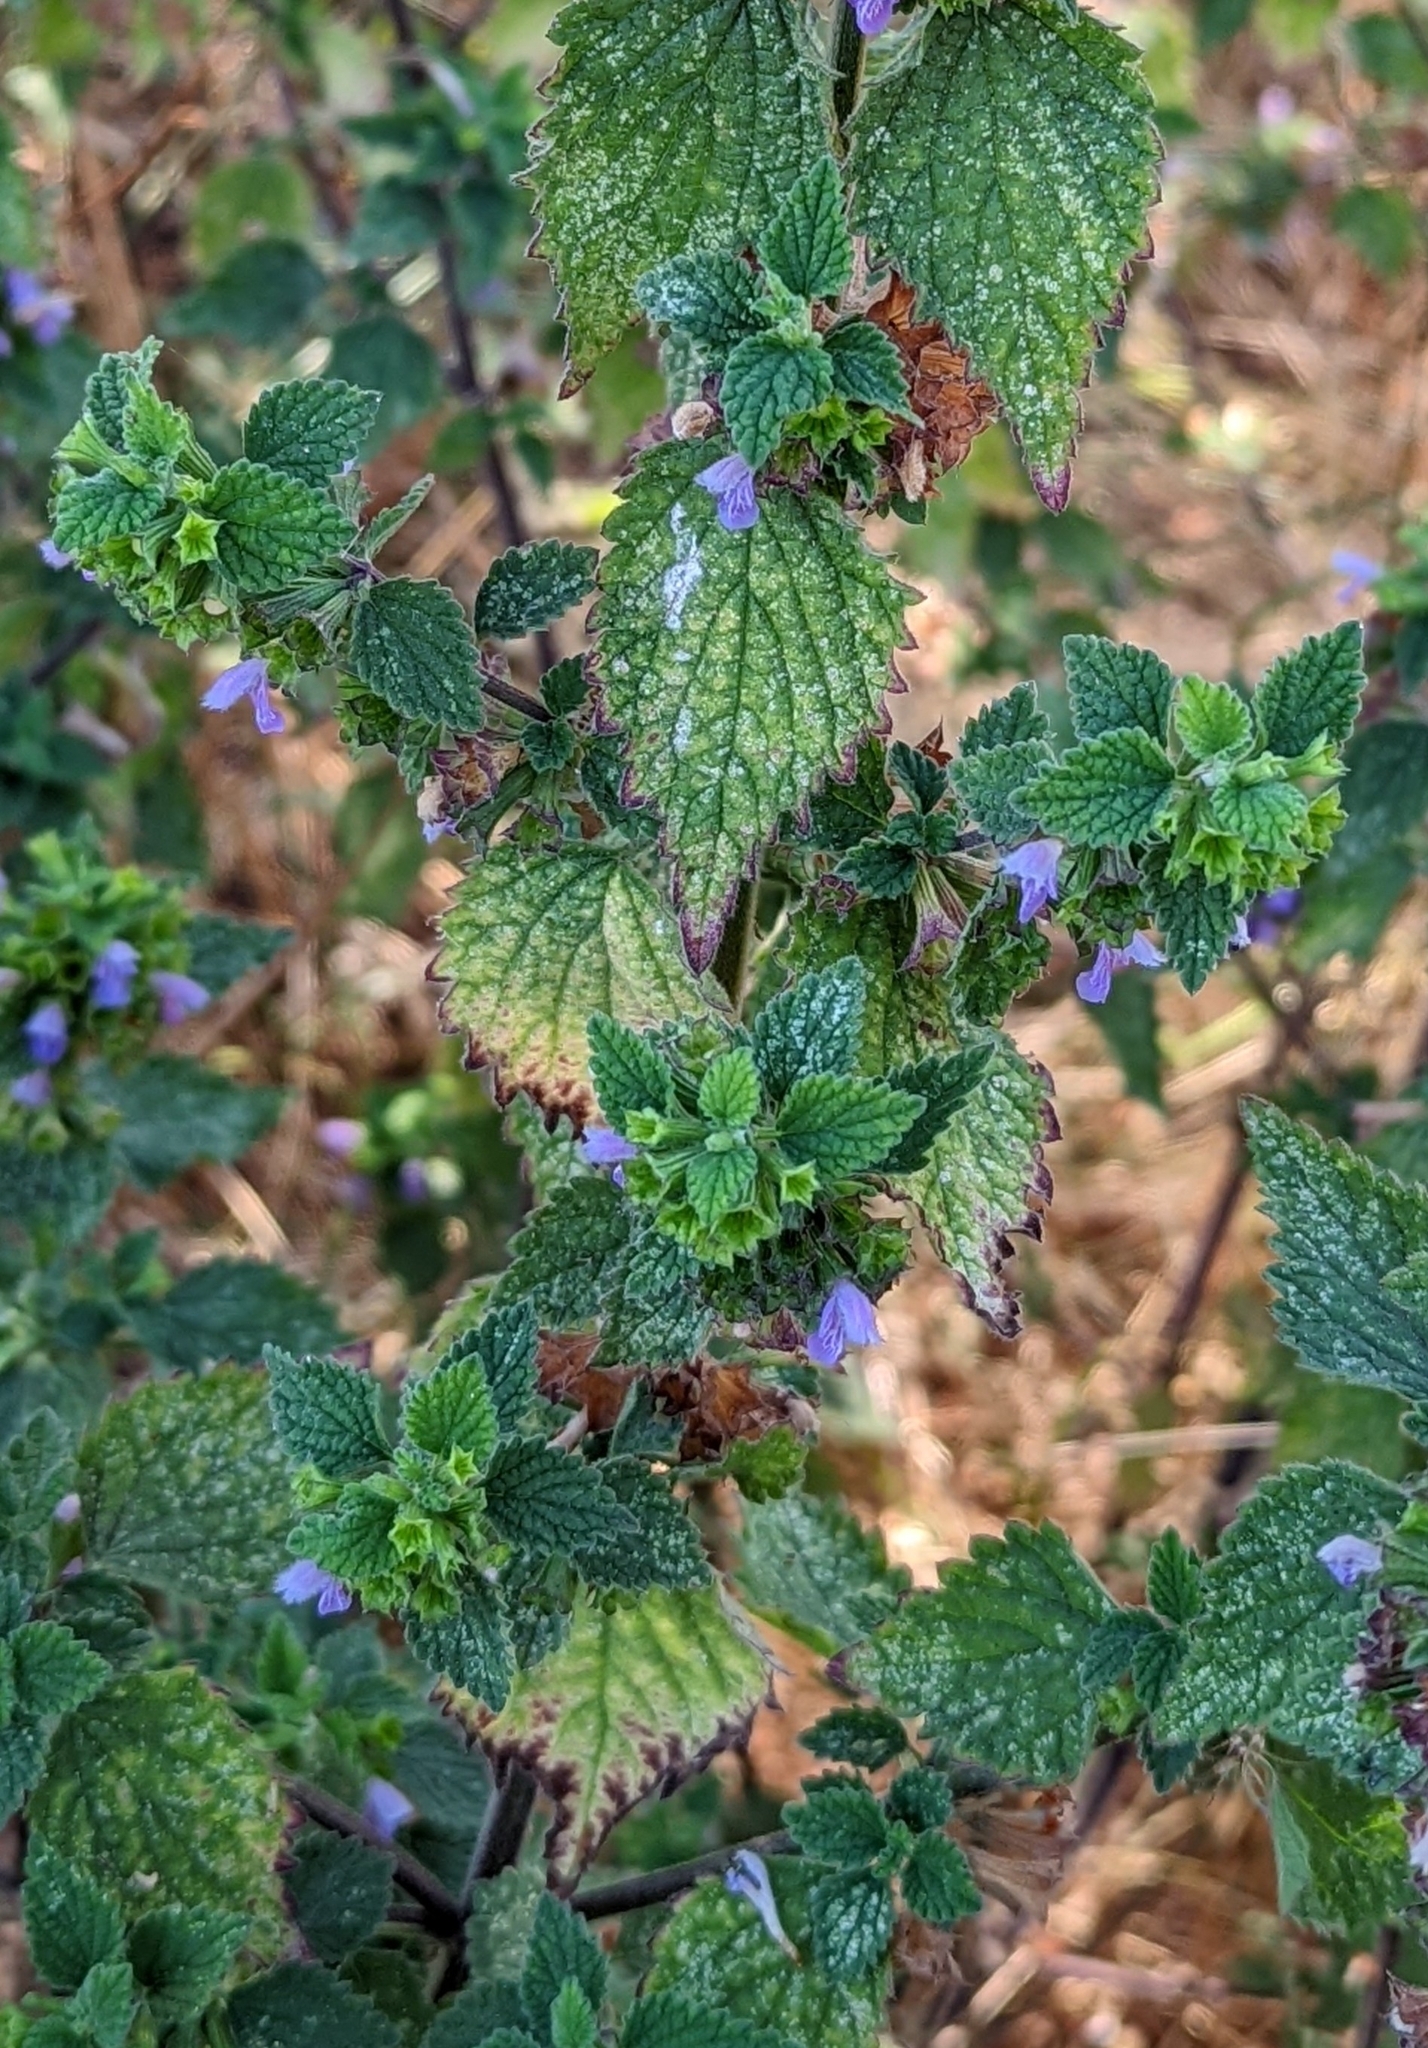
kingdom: Plantae
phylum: Tracheophyta
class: Magnoliopsida
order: Lamiales
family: Lamiaceae
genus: Ballota
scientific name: Ballota nigra
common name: Black horehound
